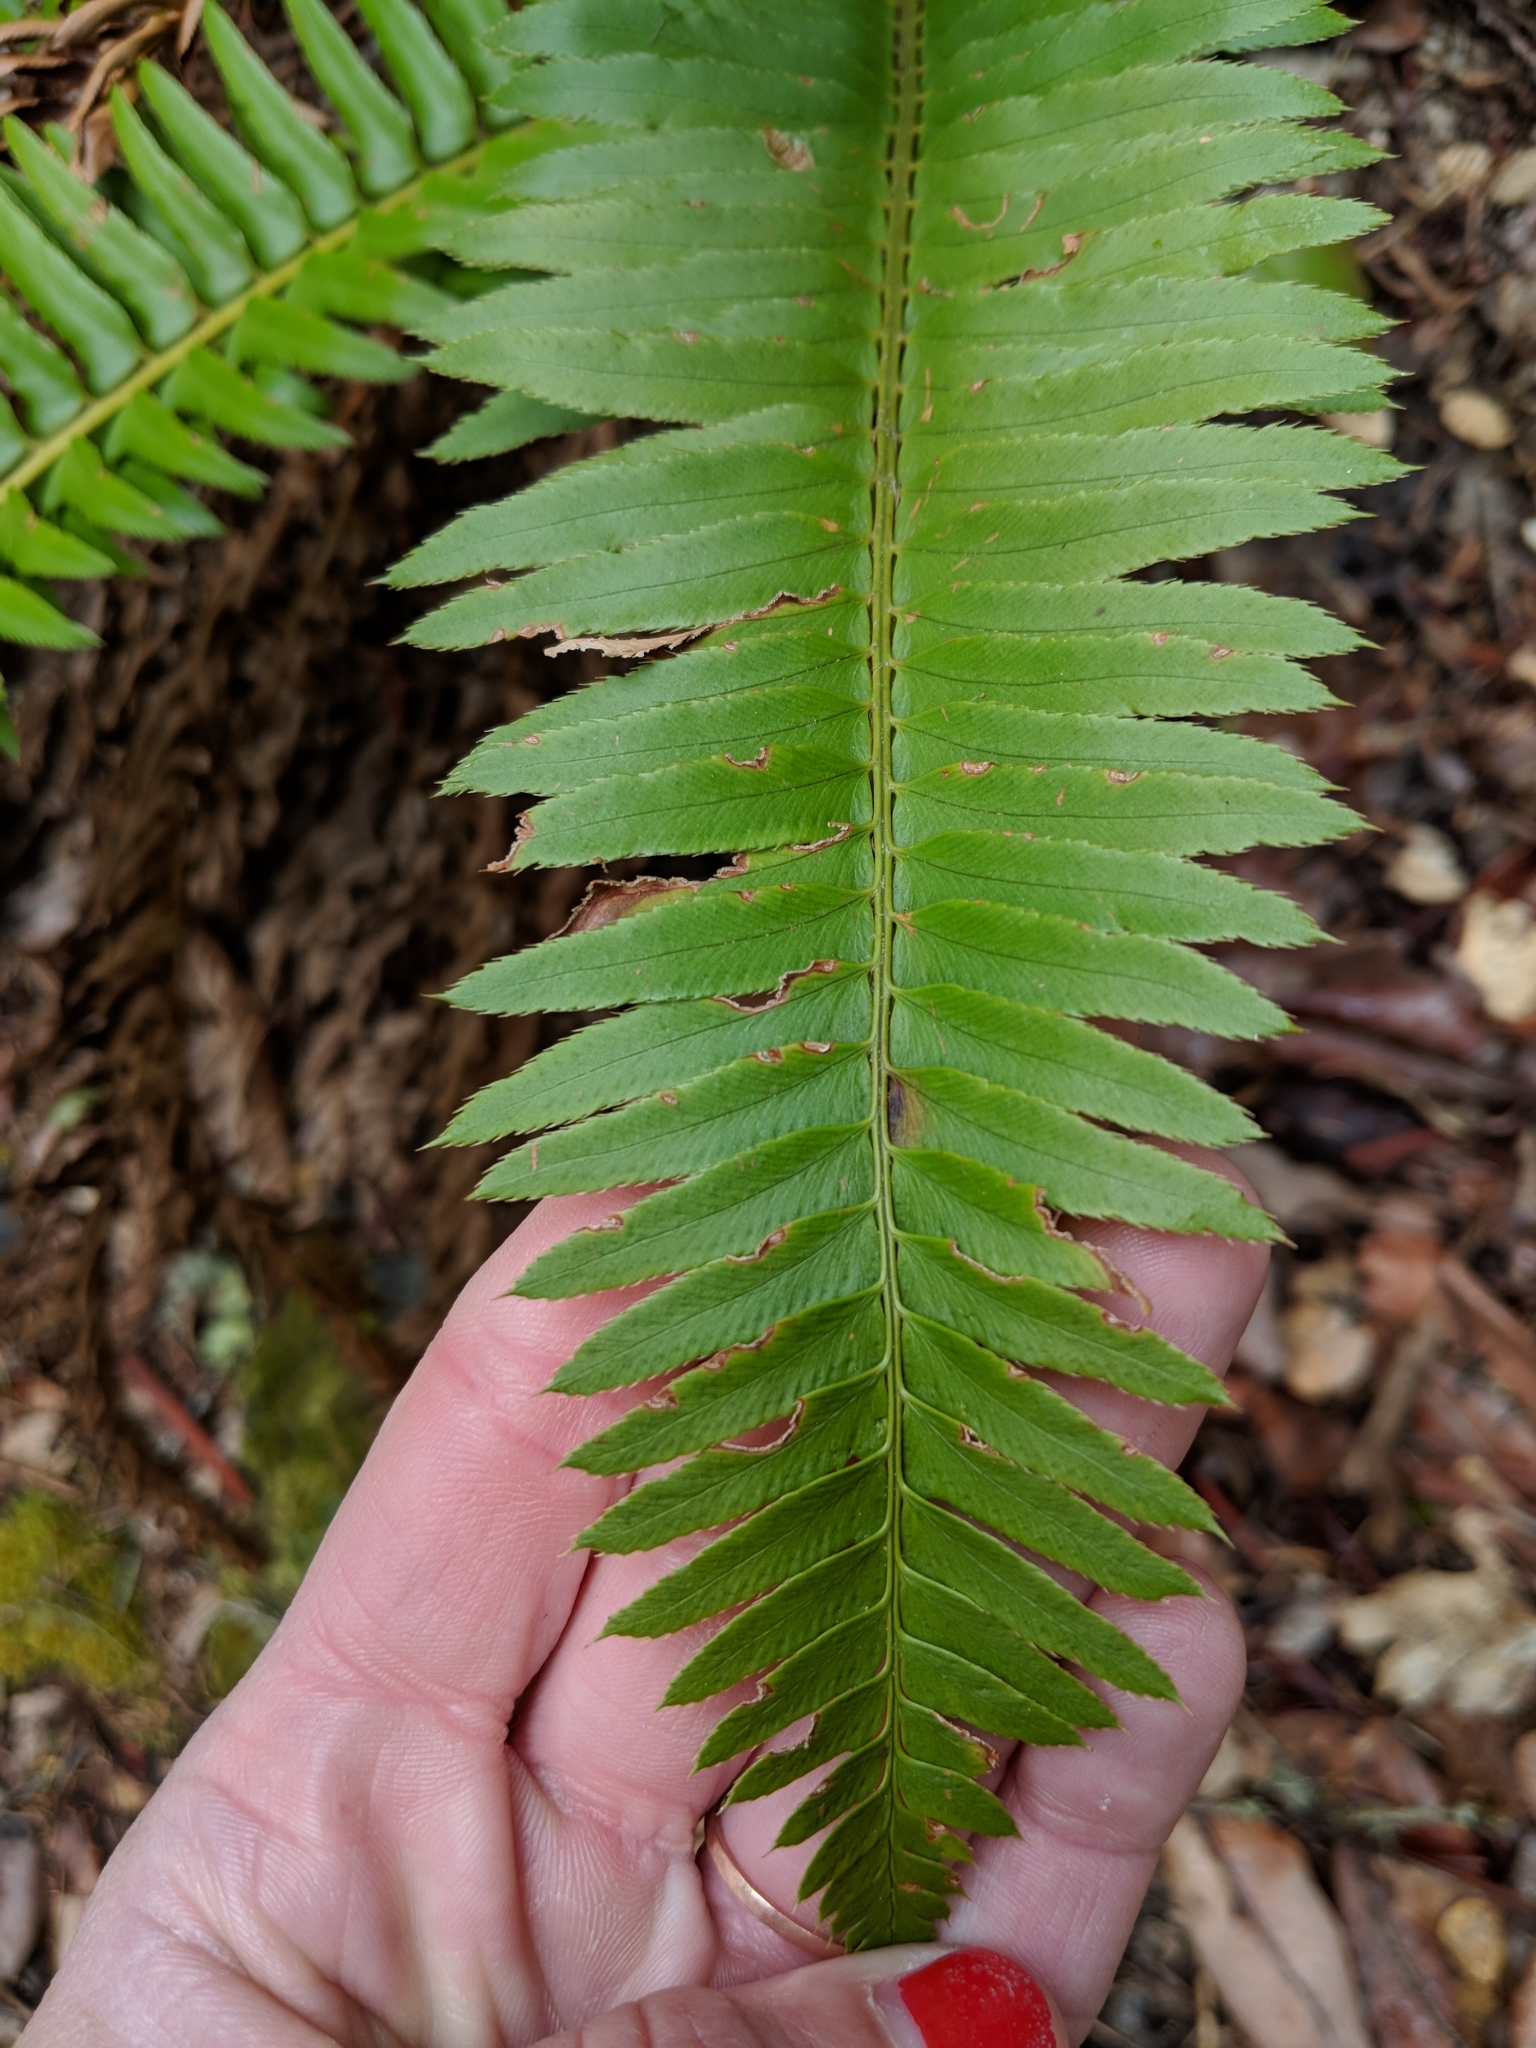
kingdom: Plantae
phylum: Tracheophyta
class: Polypodiopsida
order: Polypodiales
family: Dryopteridaceae
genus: Polystichum
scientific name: Polystichum munitum
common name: Western sword-fern
